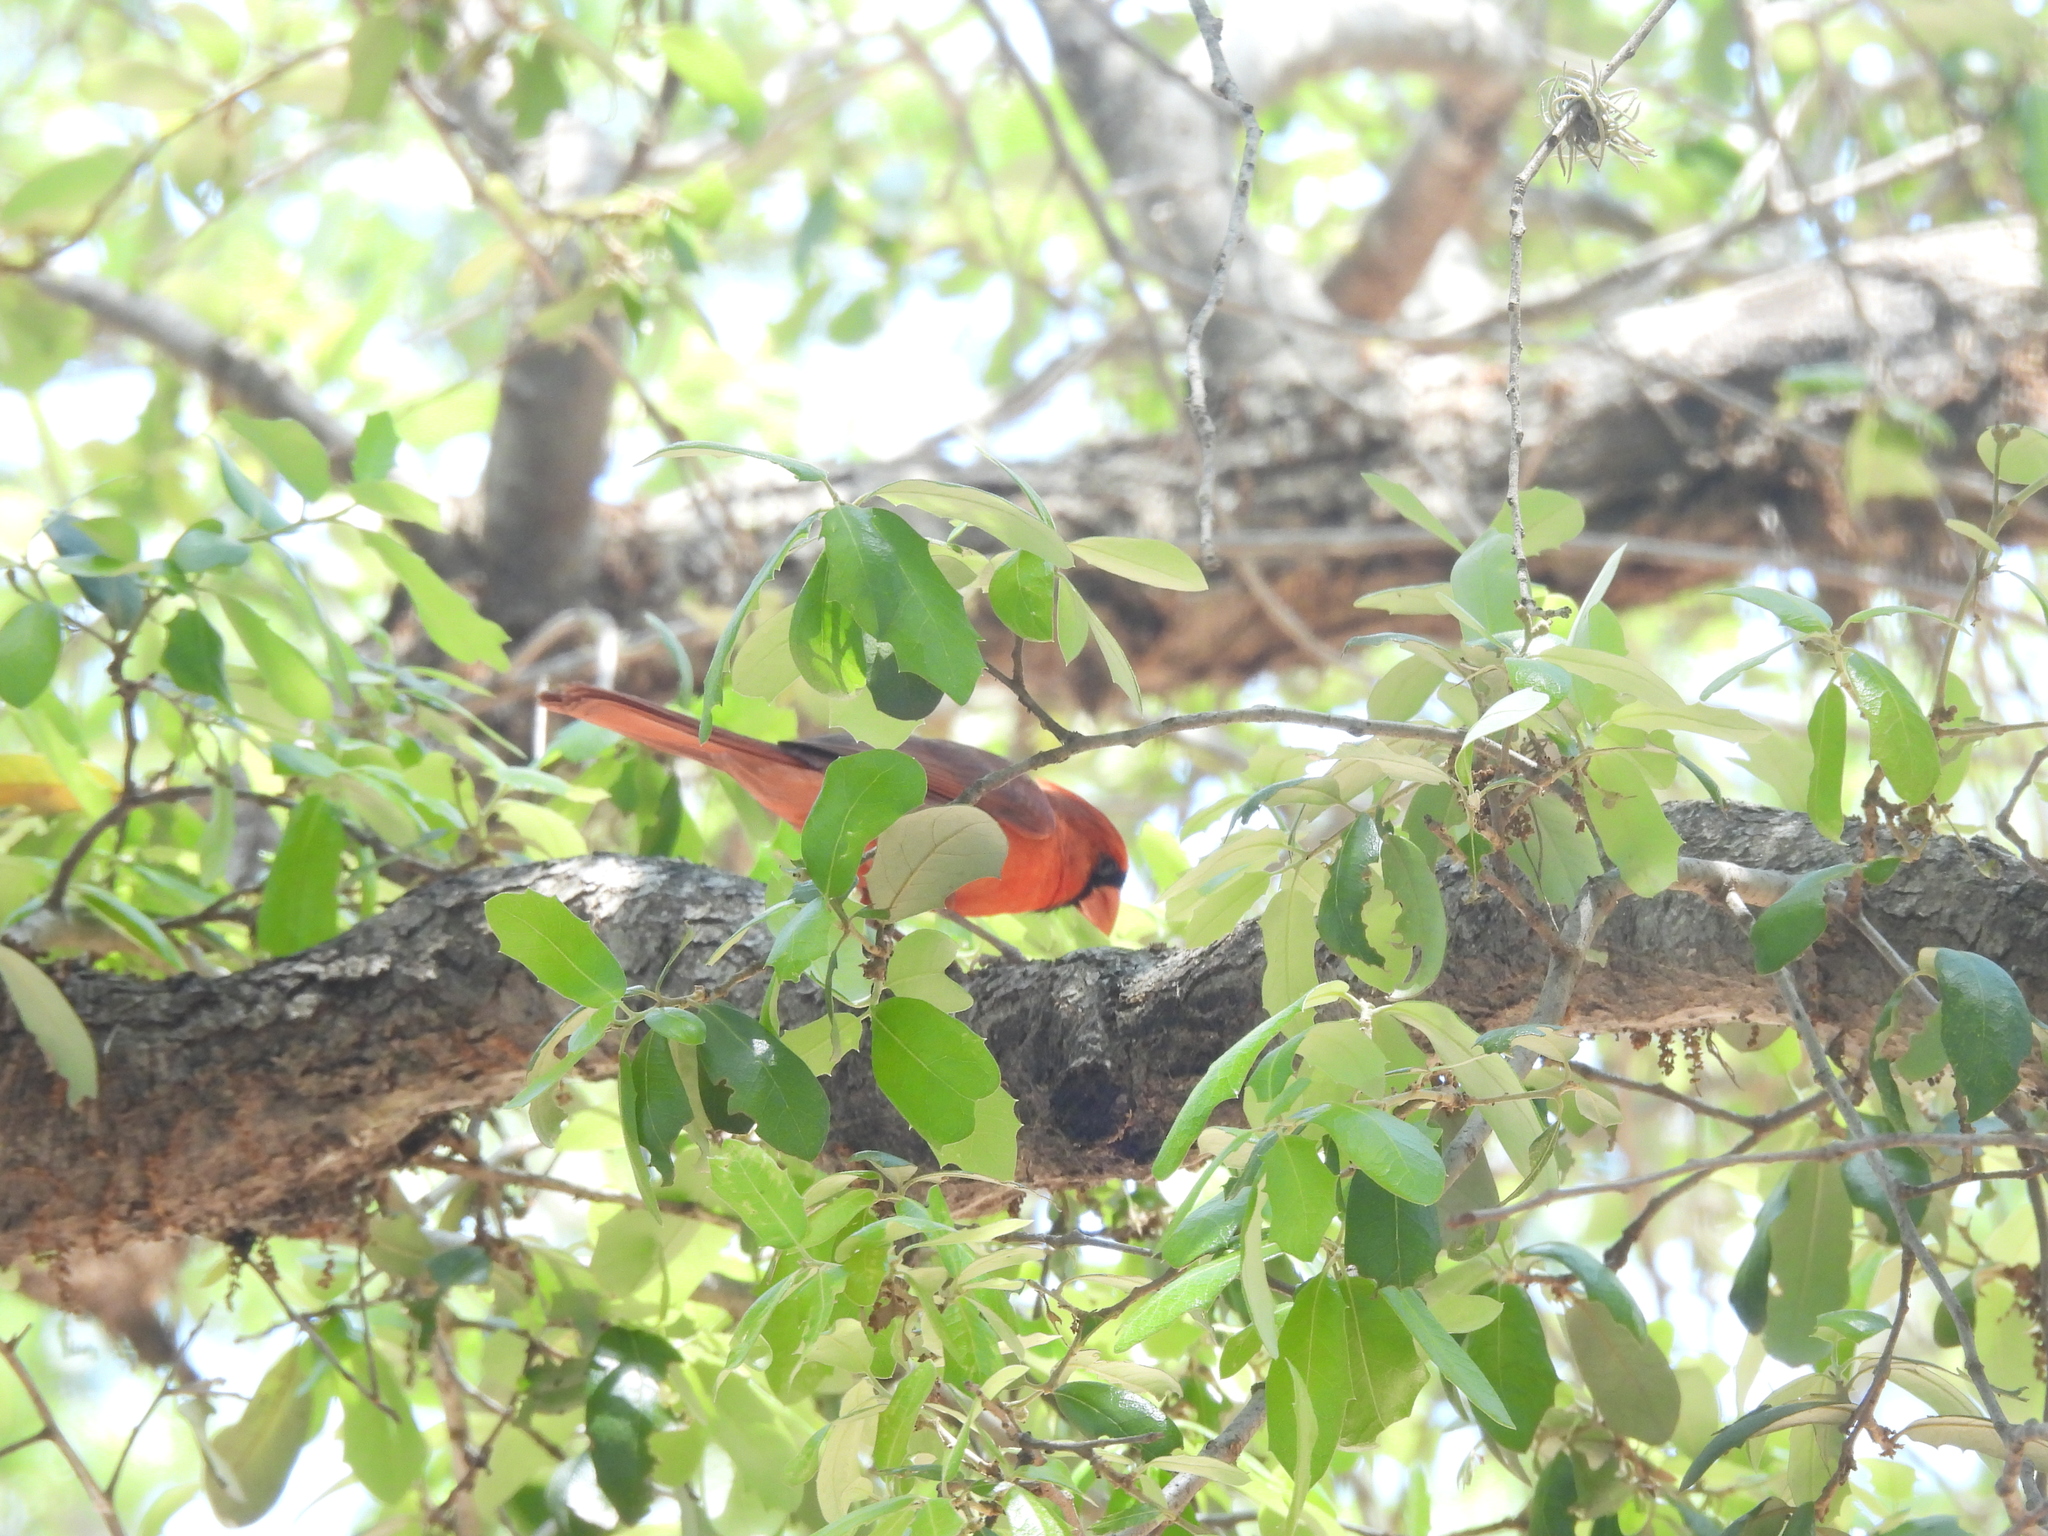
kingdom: Animalia
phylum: Chordata
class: Aves
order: Passeriformes
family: Cardinalidae
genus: Cardinalis
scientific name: Cardinalis cardinalis
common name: Northern cardinal
